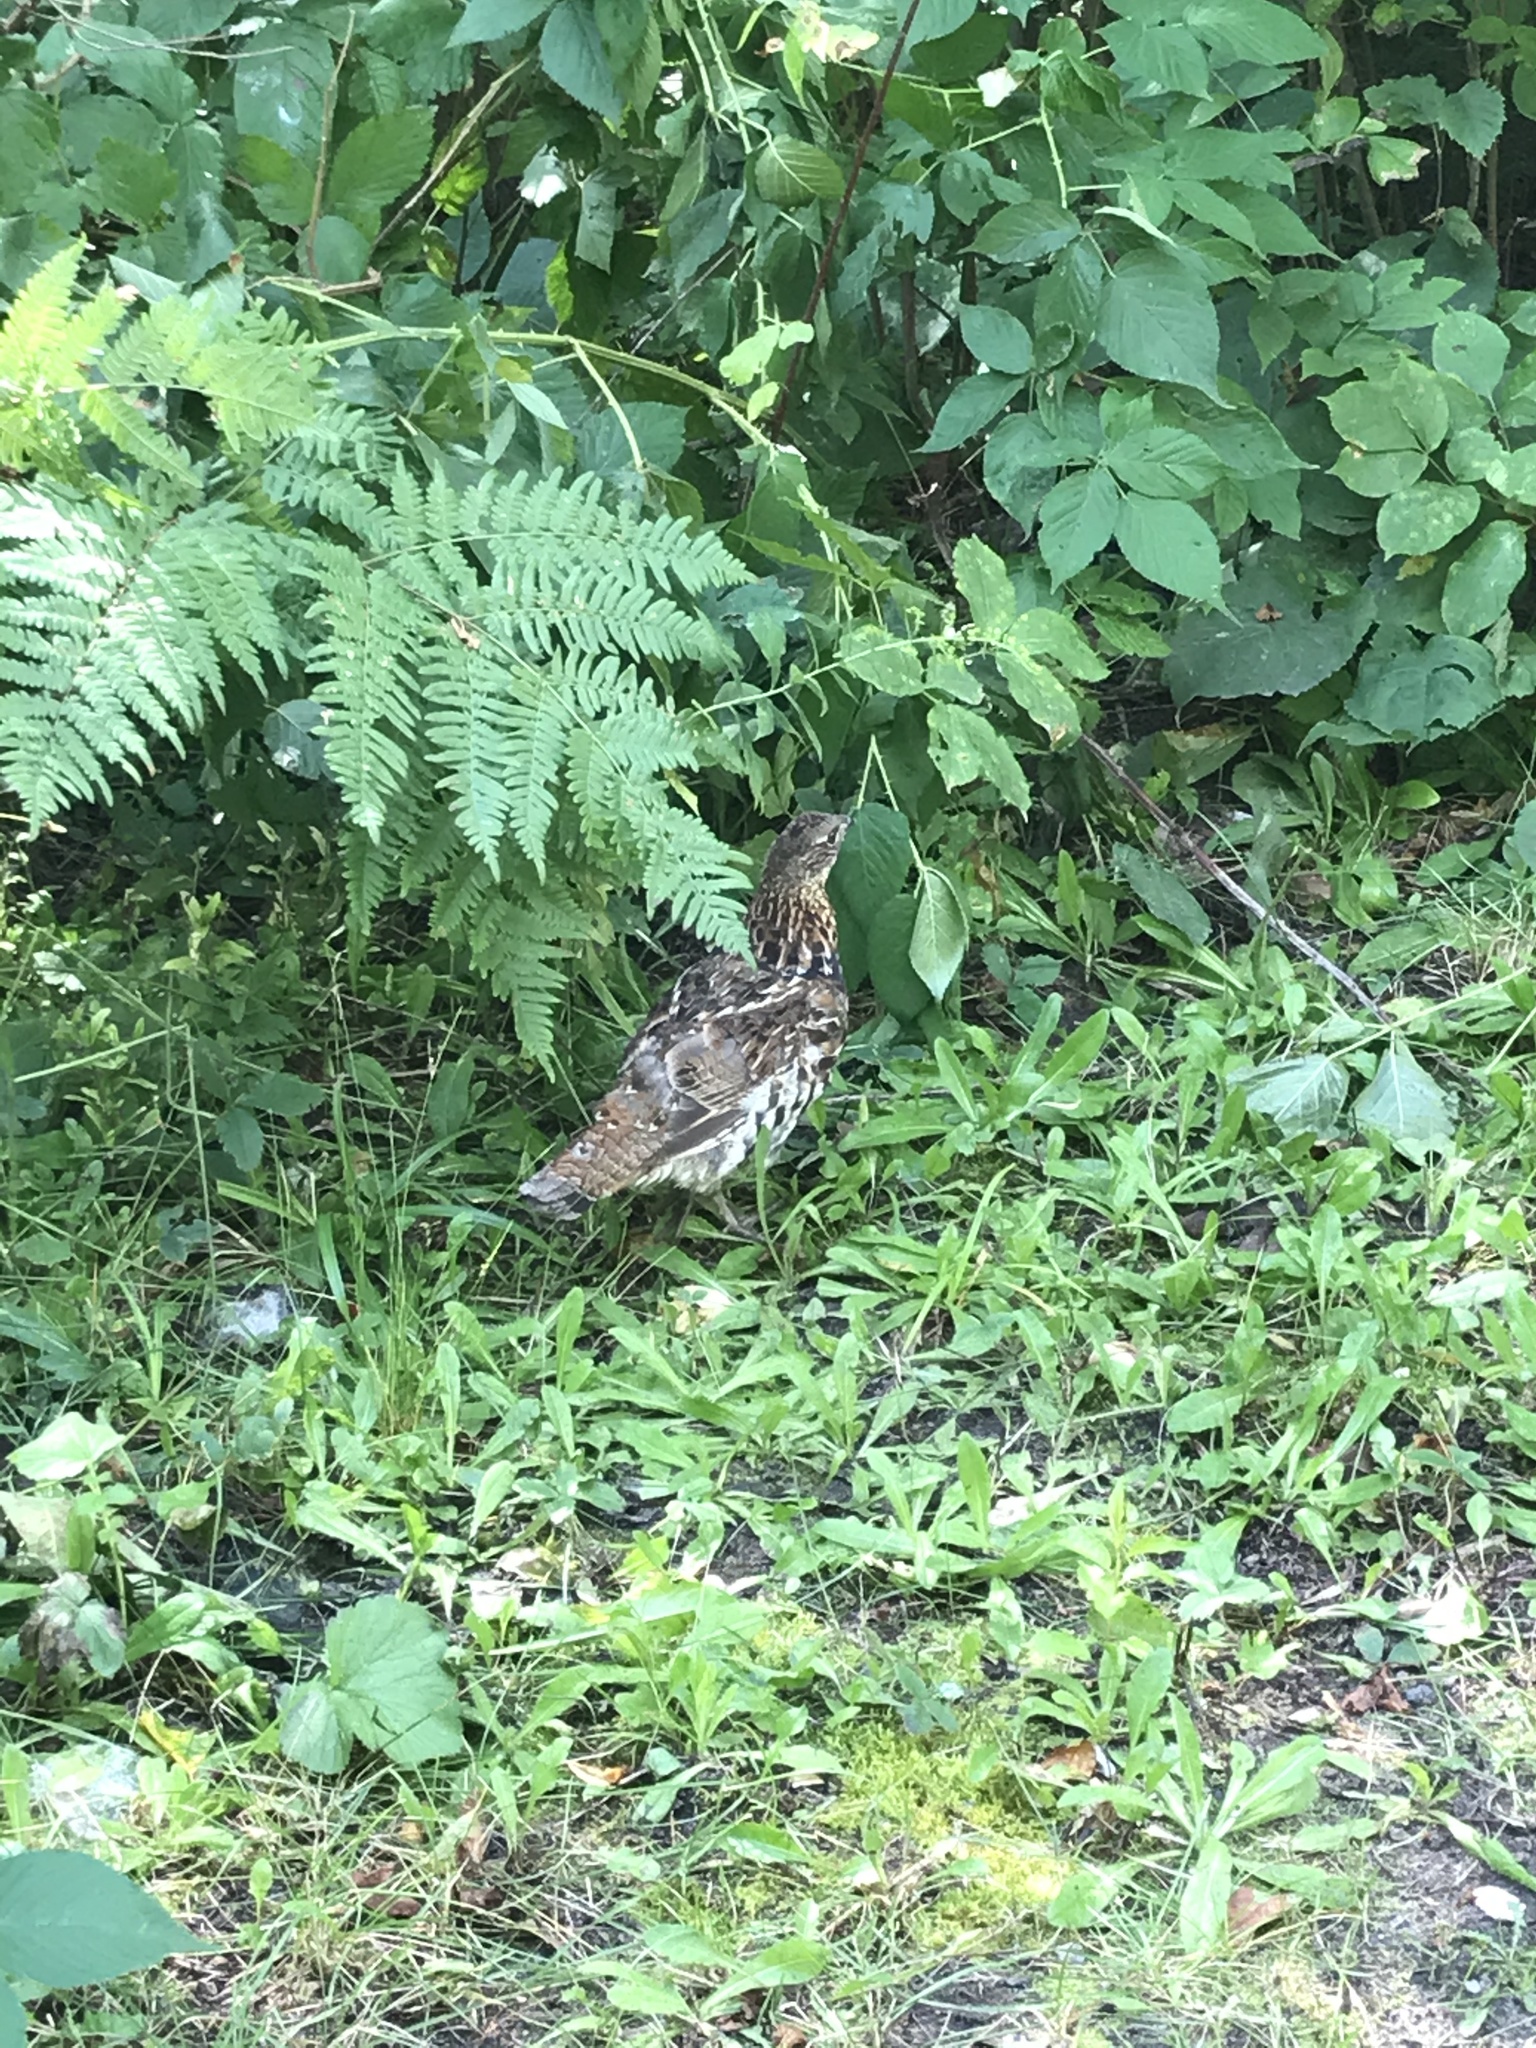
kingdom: Animalia
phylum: Chordata
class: Aves
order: Galliformes
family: Phasianidae
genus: Bonasa
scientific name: Bonasa umbellus
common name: Ruffed grouse
